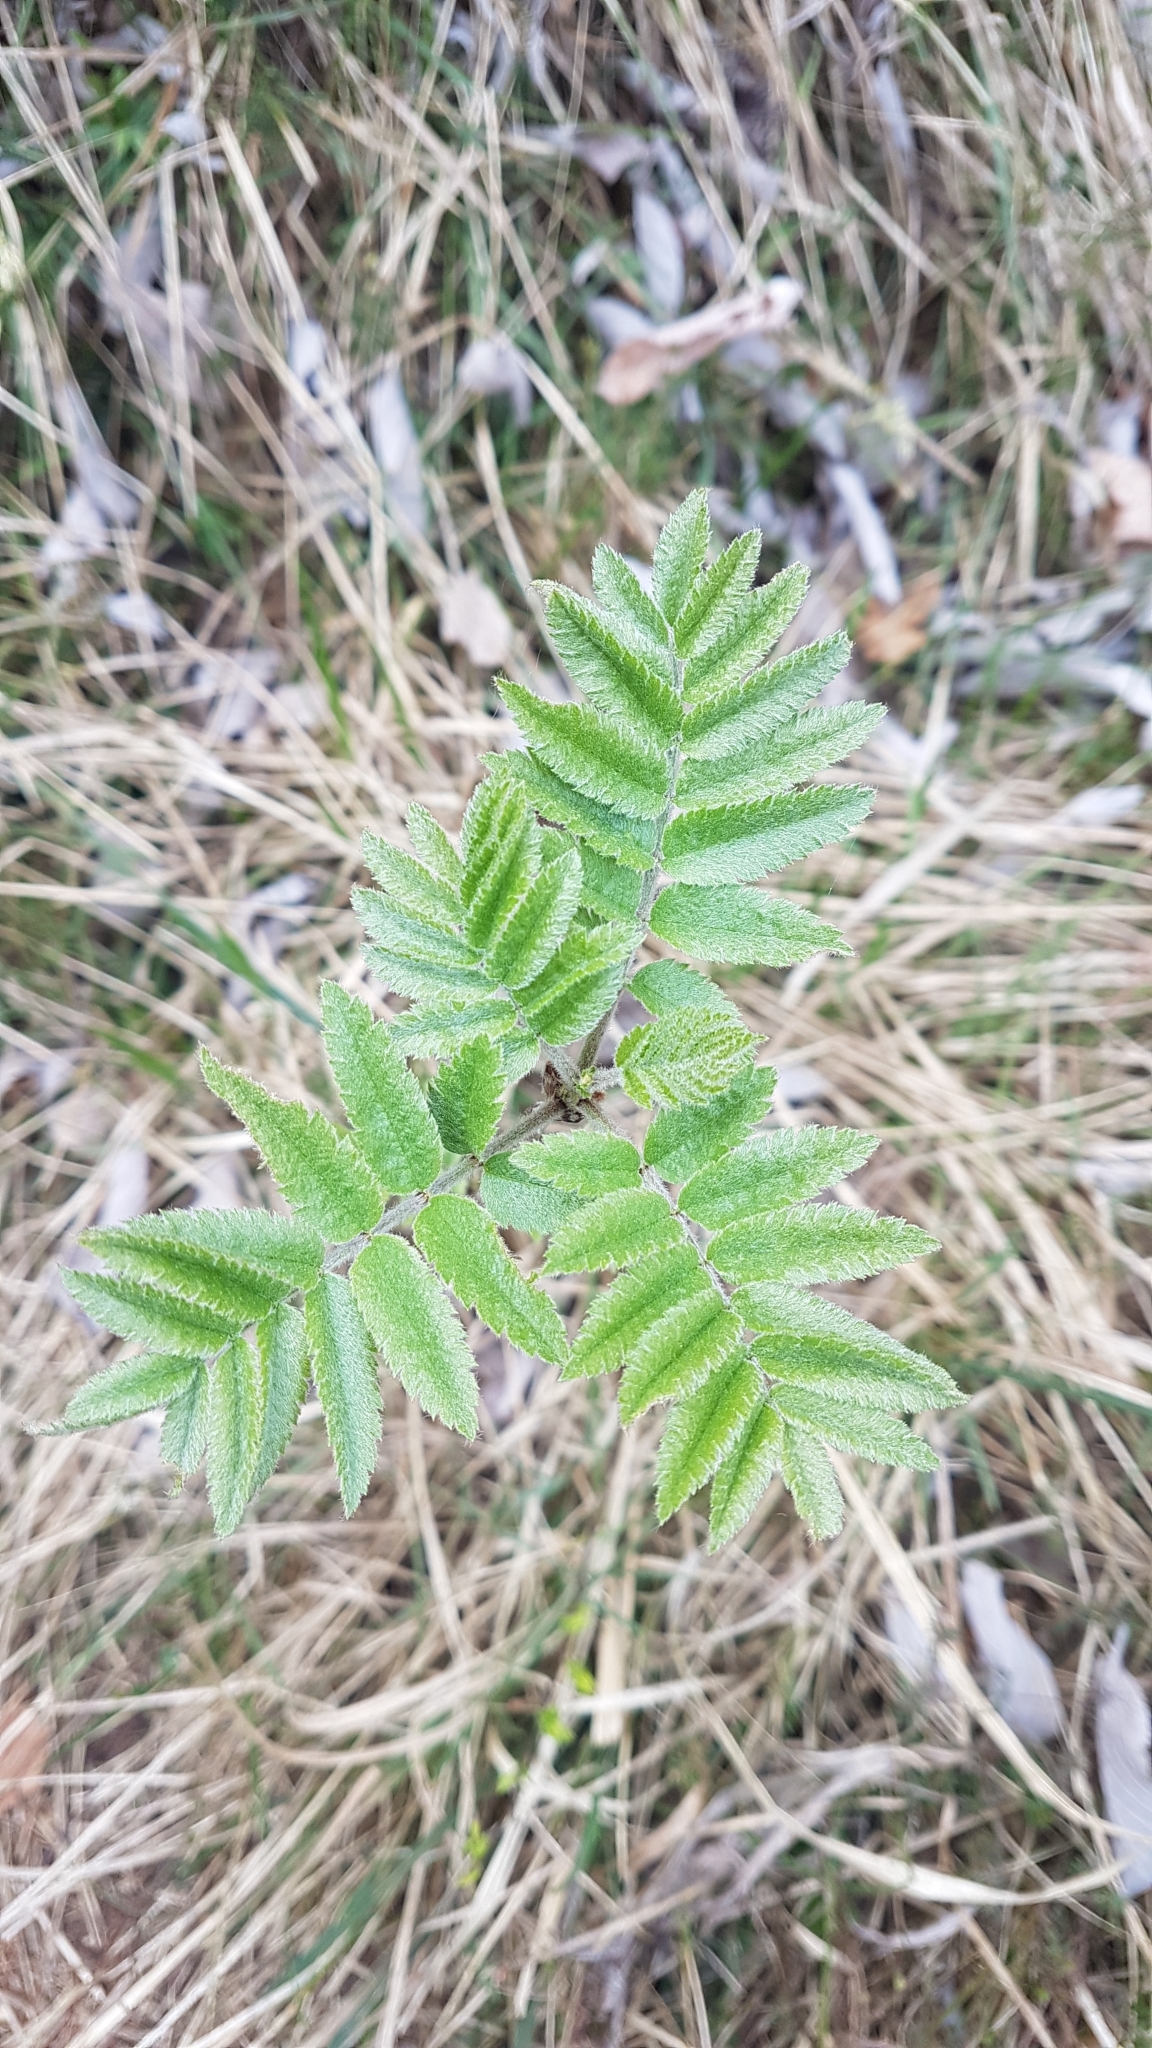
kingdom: Plantae
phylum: Tracheophyta
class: Magnoliopsida
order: Rosales
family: Rosaceae
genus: Sorbus
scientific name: Sorbus aucuparia
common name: Rowan
